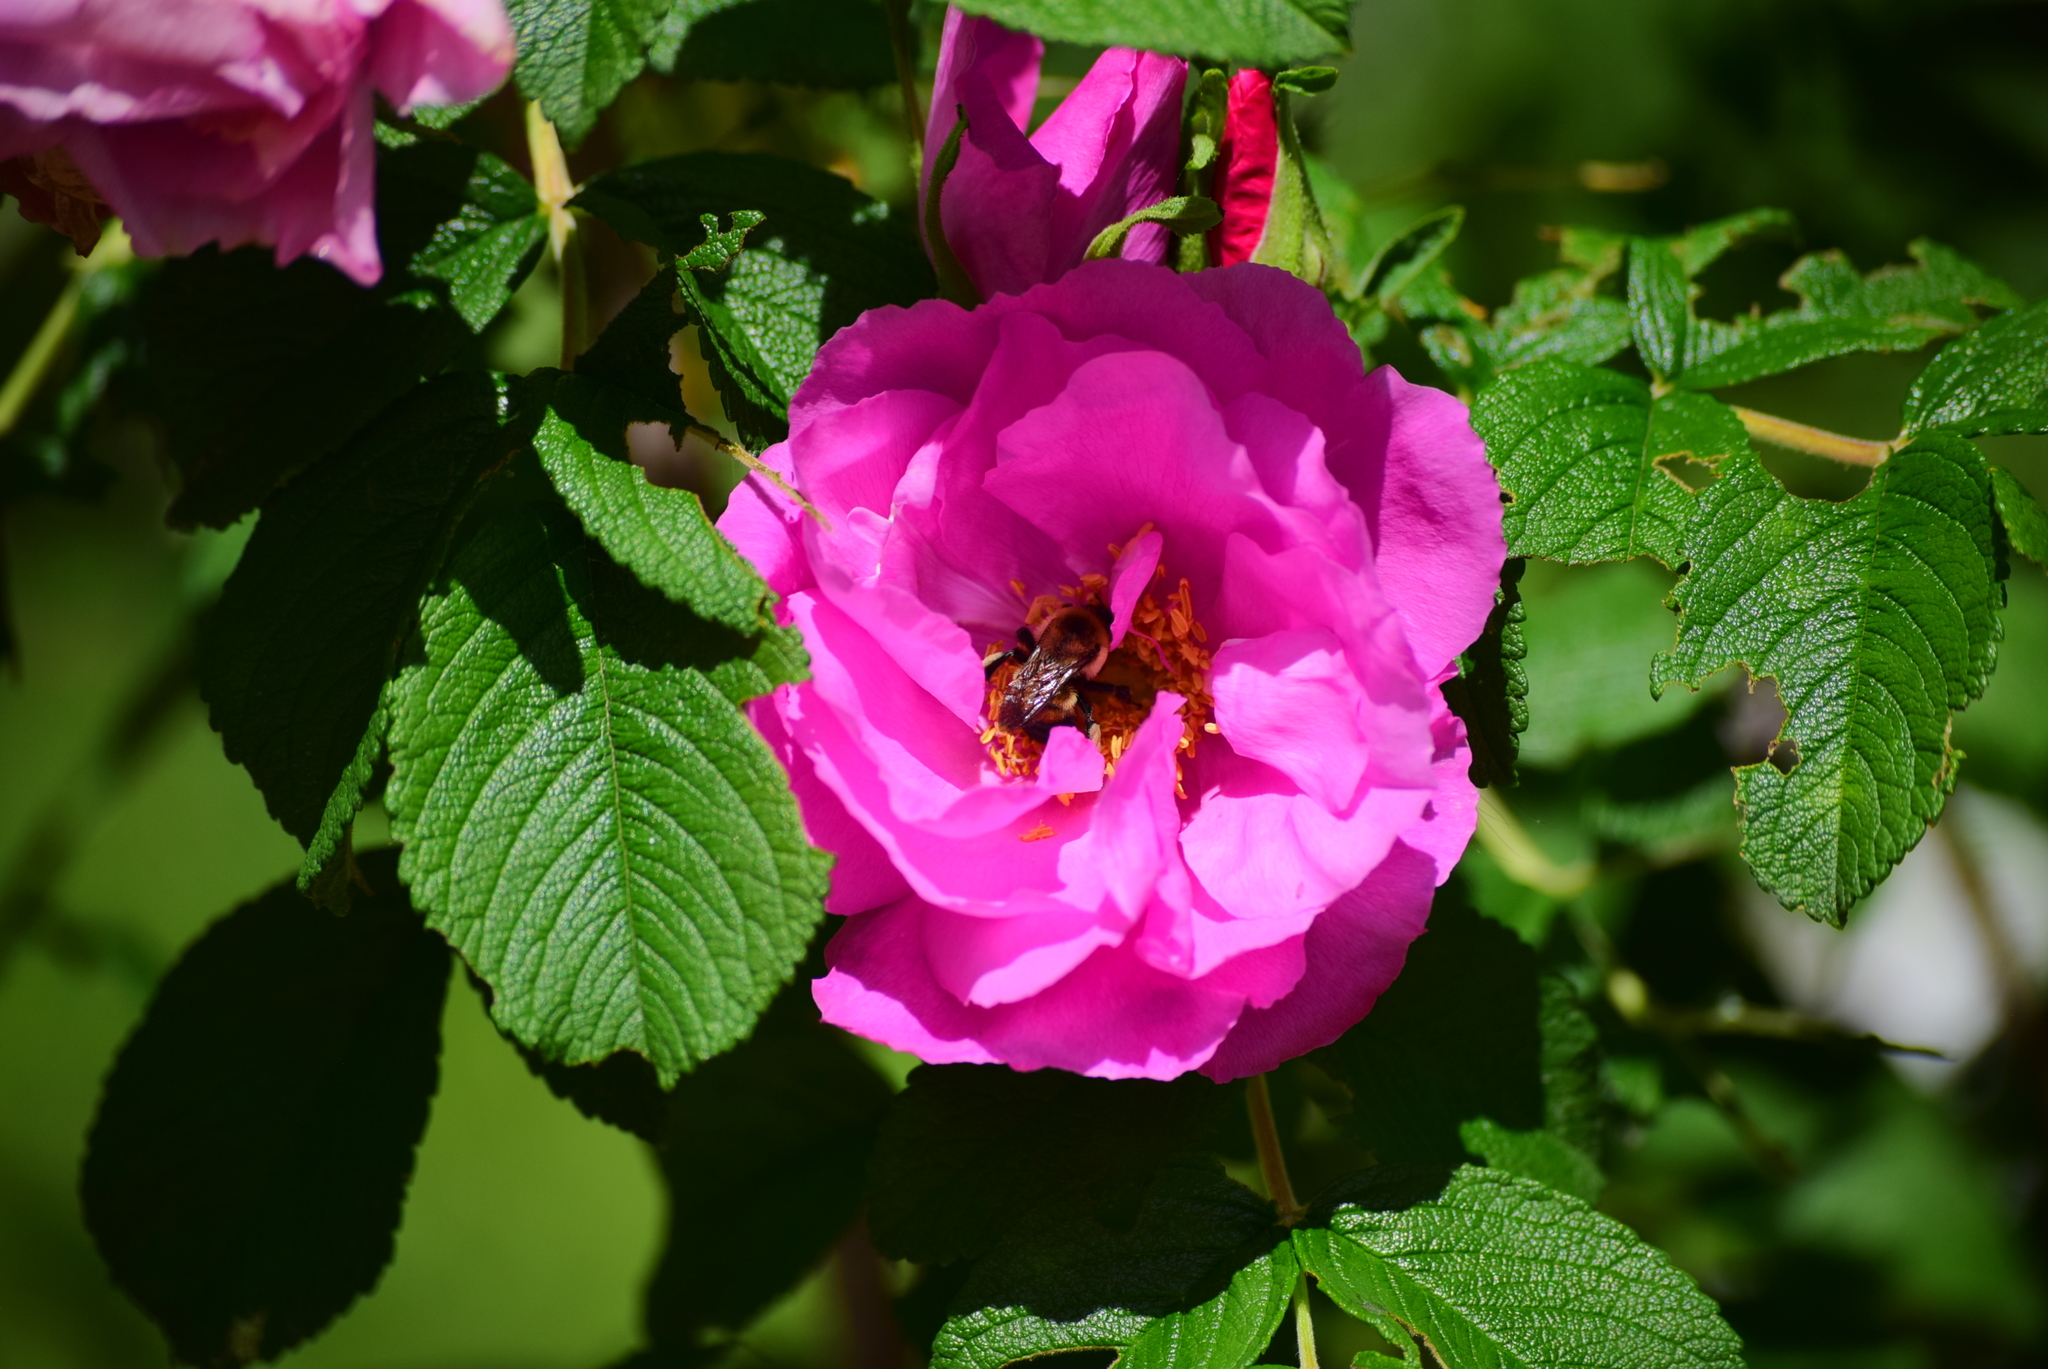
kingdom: Animalia
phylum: Arthropoda
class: Insecta
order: Hymenoptera
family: Apidae
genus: Bombus
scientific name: Bombus griseocollis
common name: Brown-belted bumble bee
